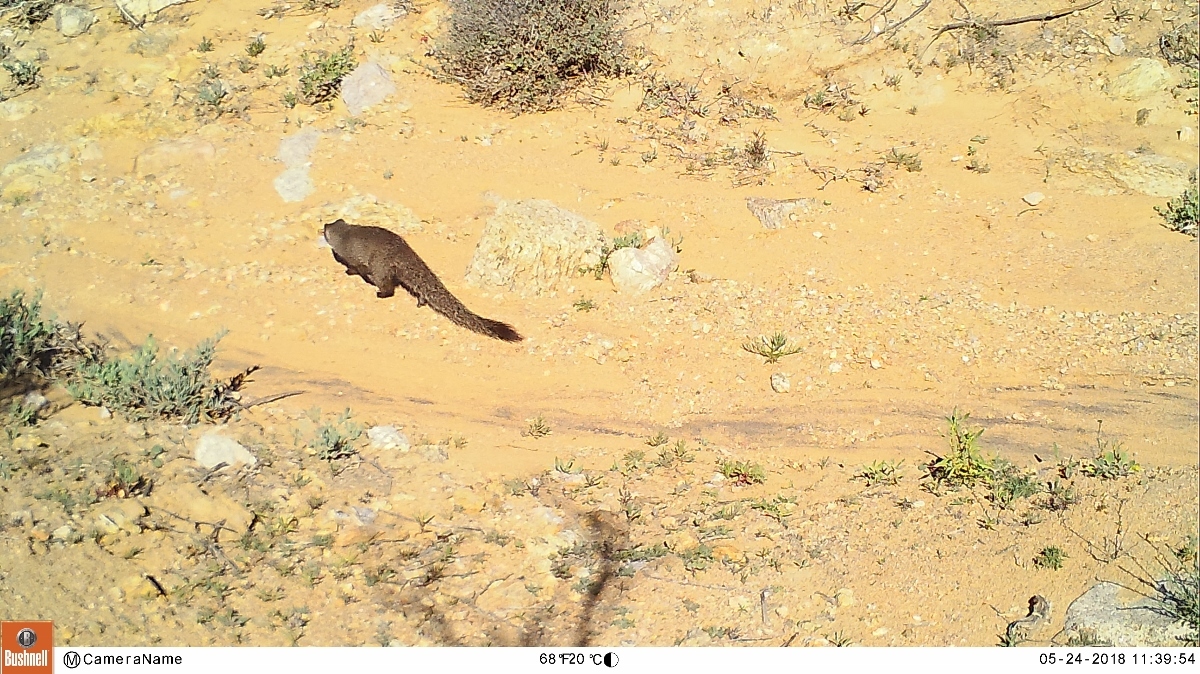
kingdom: Animalia
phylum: Chordata
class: Mammalia
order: Carnivora
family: Herpestidae
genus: Galerella
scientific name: Galerella pulverulenta
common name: Cape gray mongoose
